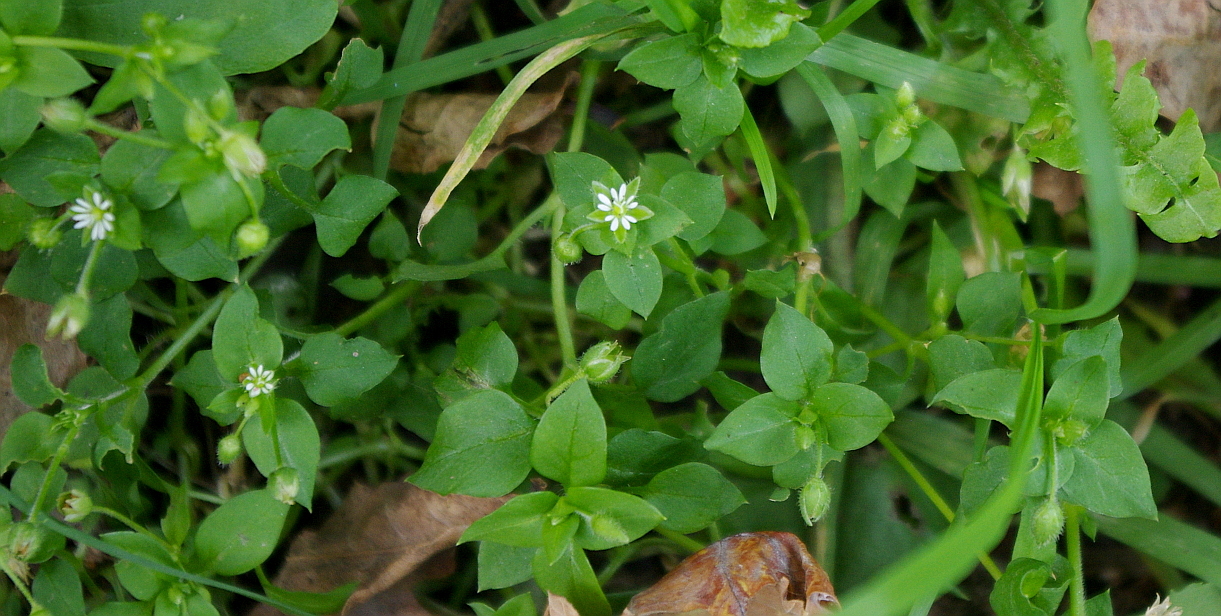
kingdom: Plantae
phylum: Tracheophyta
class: Magnoliopsida
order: Caryophyllales
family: Caryophyllaceae
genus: Stellaria
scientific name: Stellaria media
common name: Common chickweed
